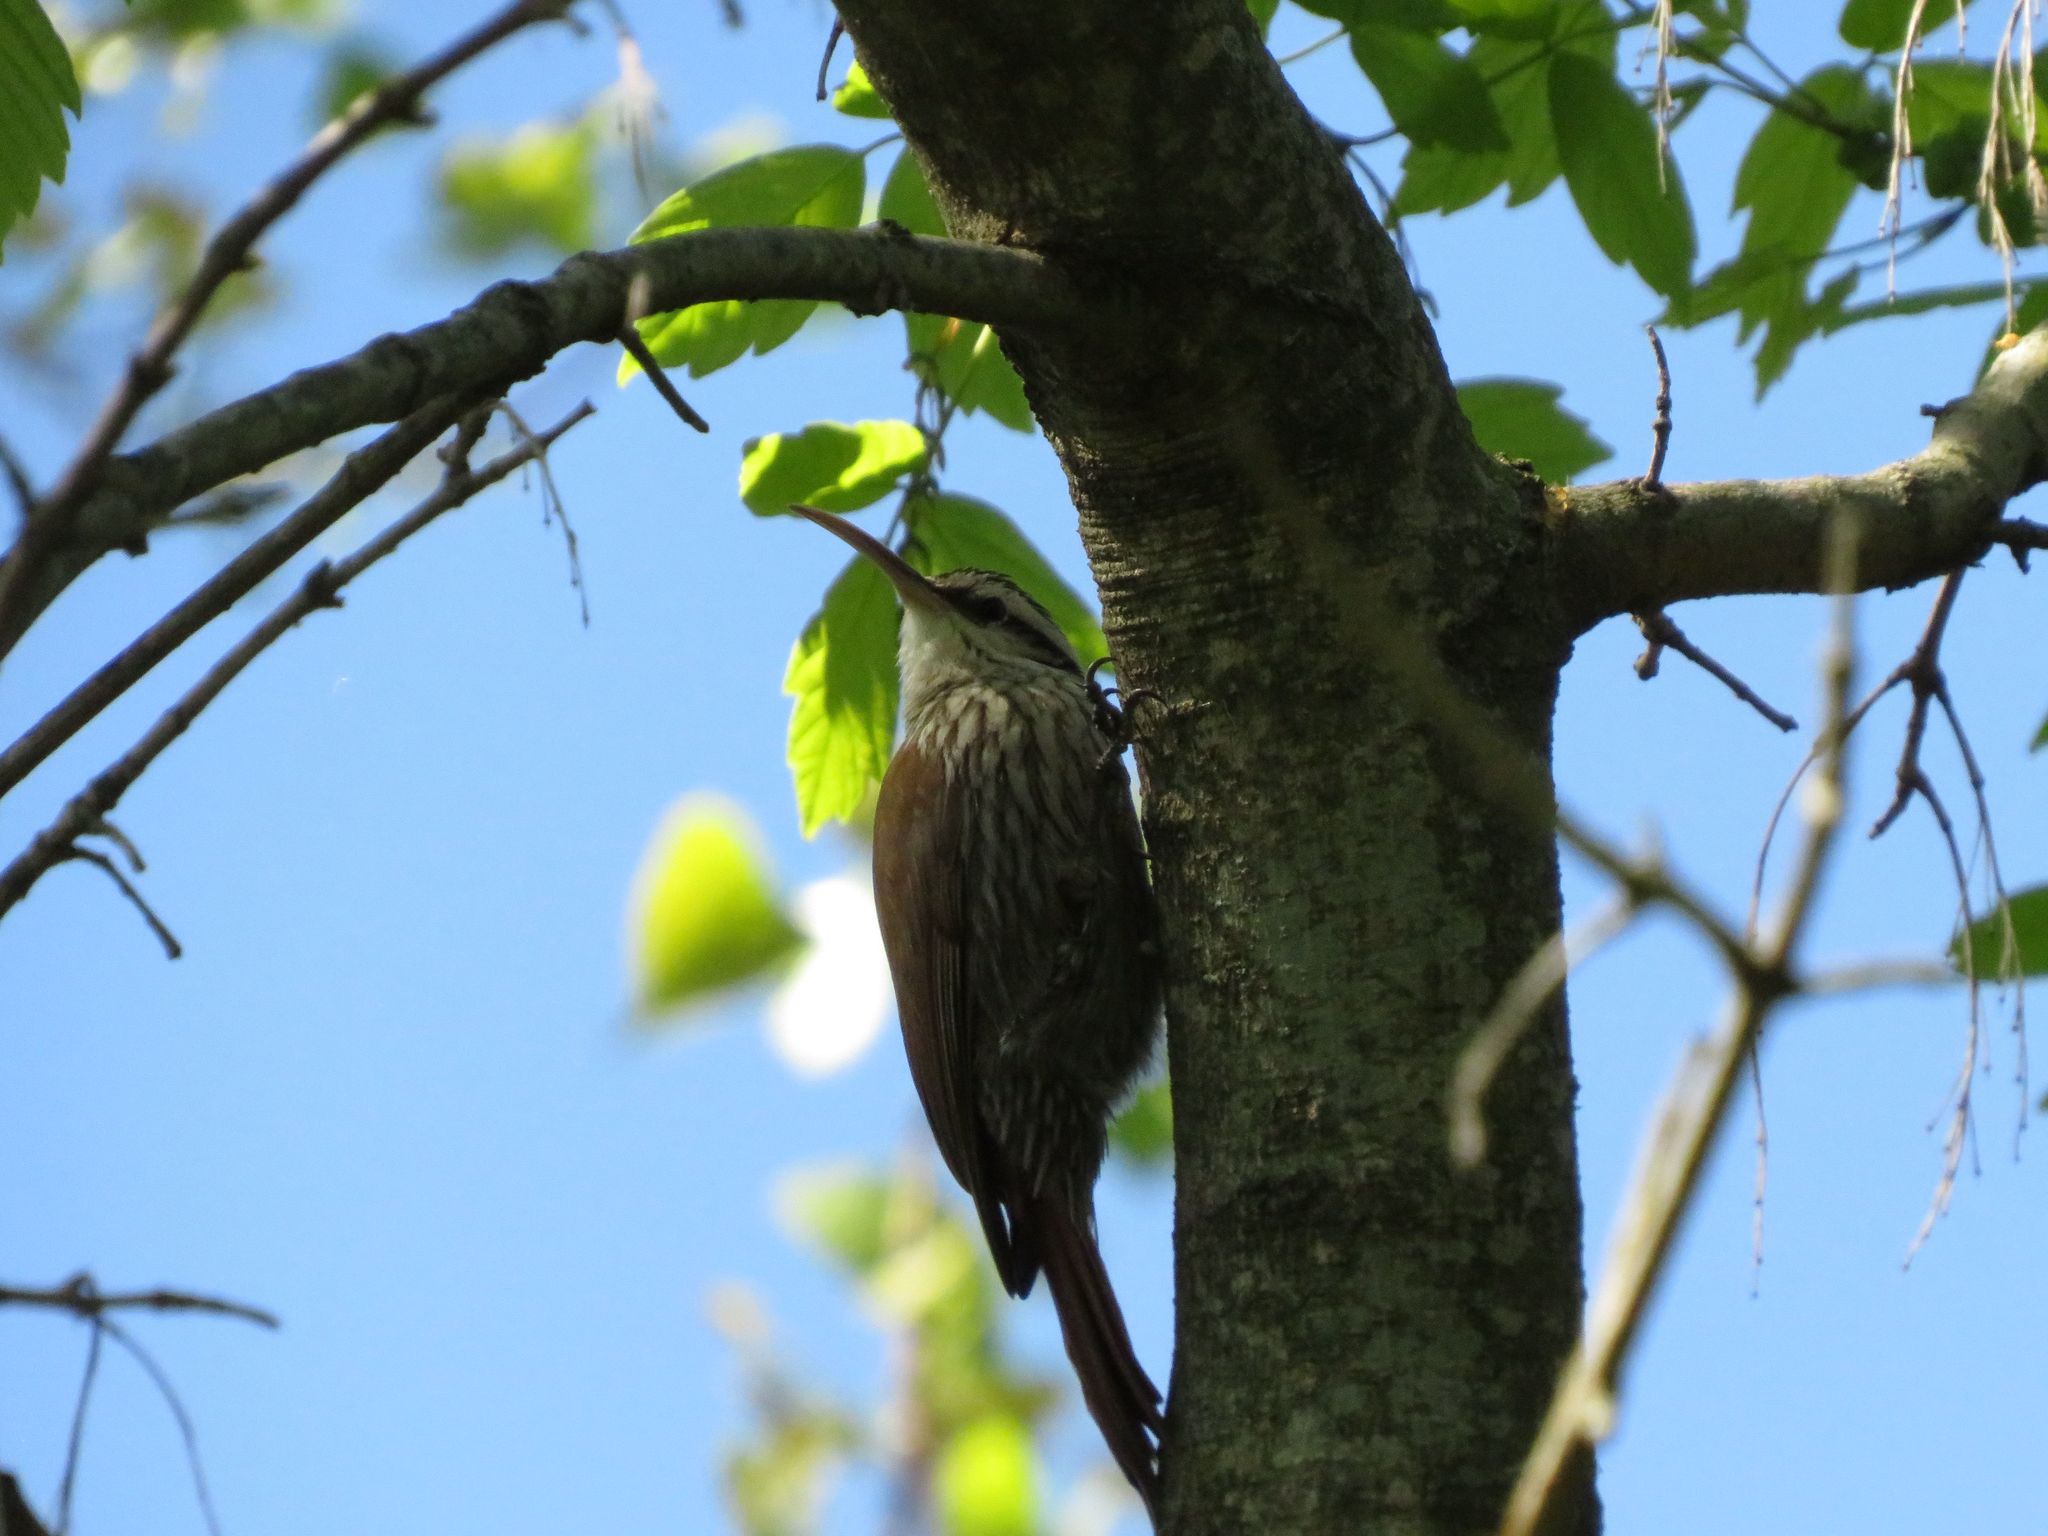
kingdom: Animalia
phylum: Chordata
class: Aves
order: Passeriformes
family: Furnariidae
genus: Lepidocolaptes
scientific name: Lepidocolaptes angustirostris
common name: Narrow-billed woodcreeper
